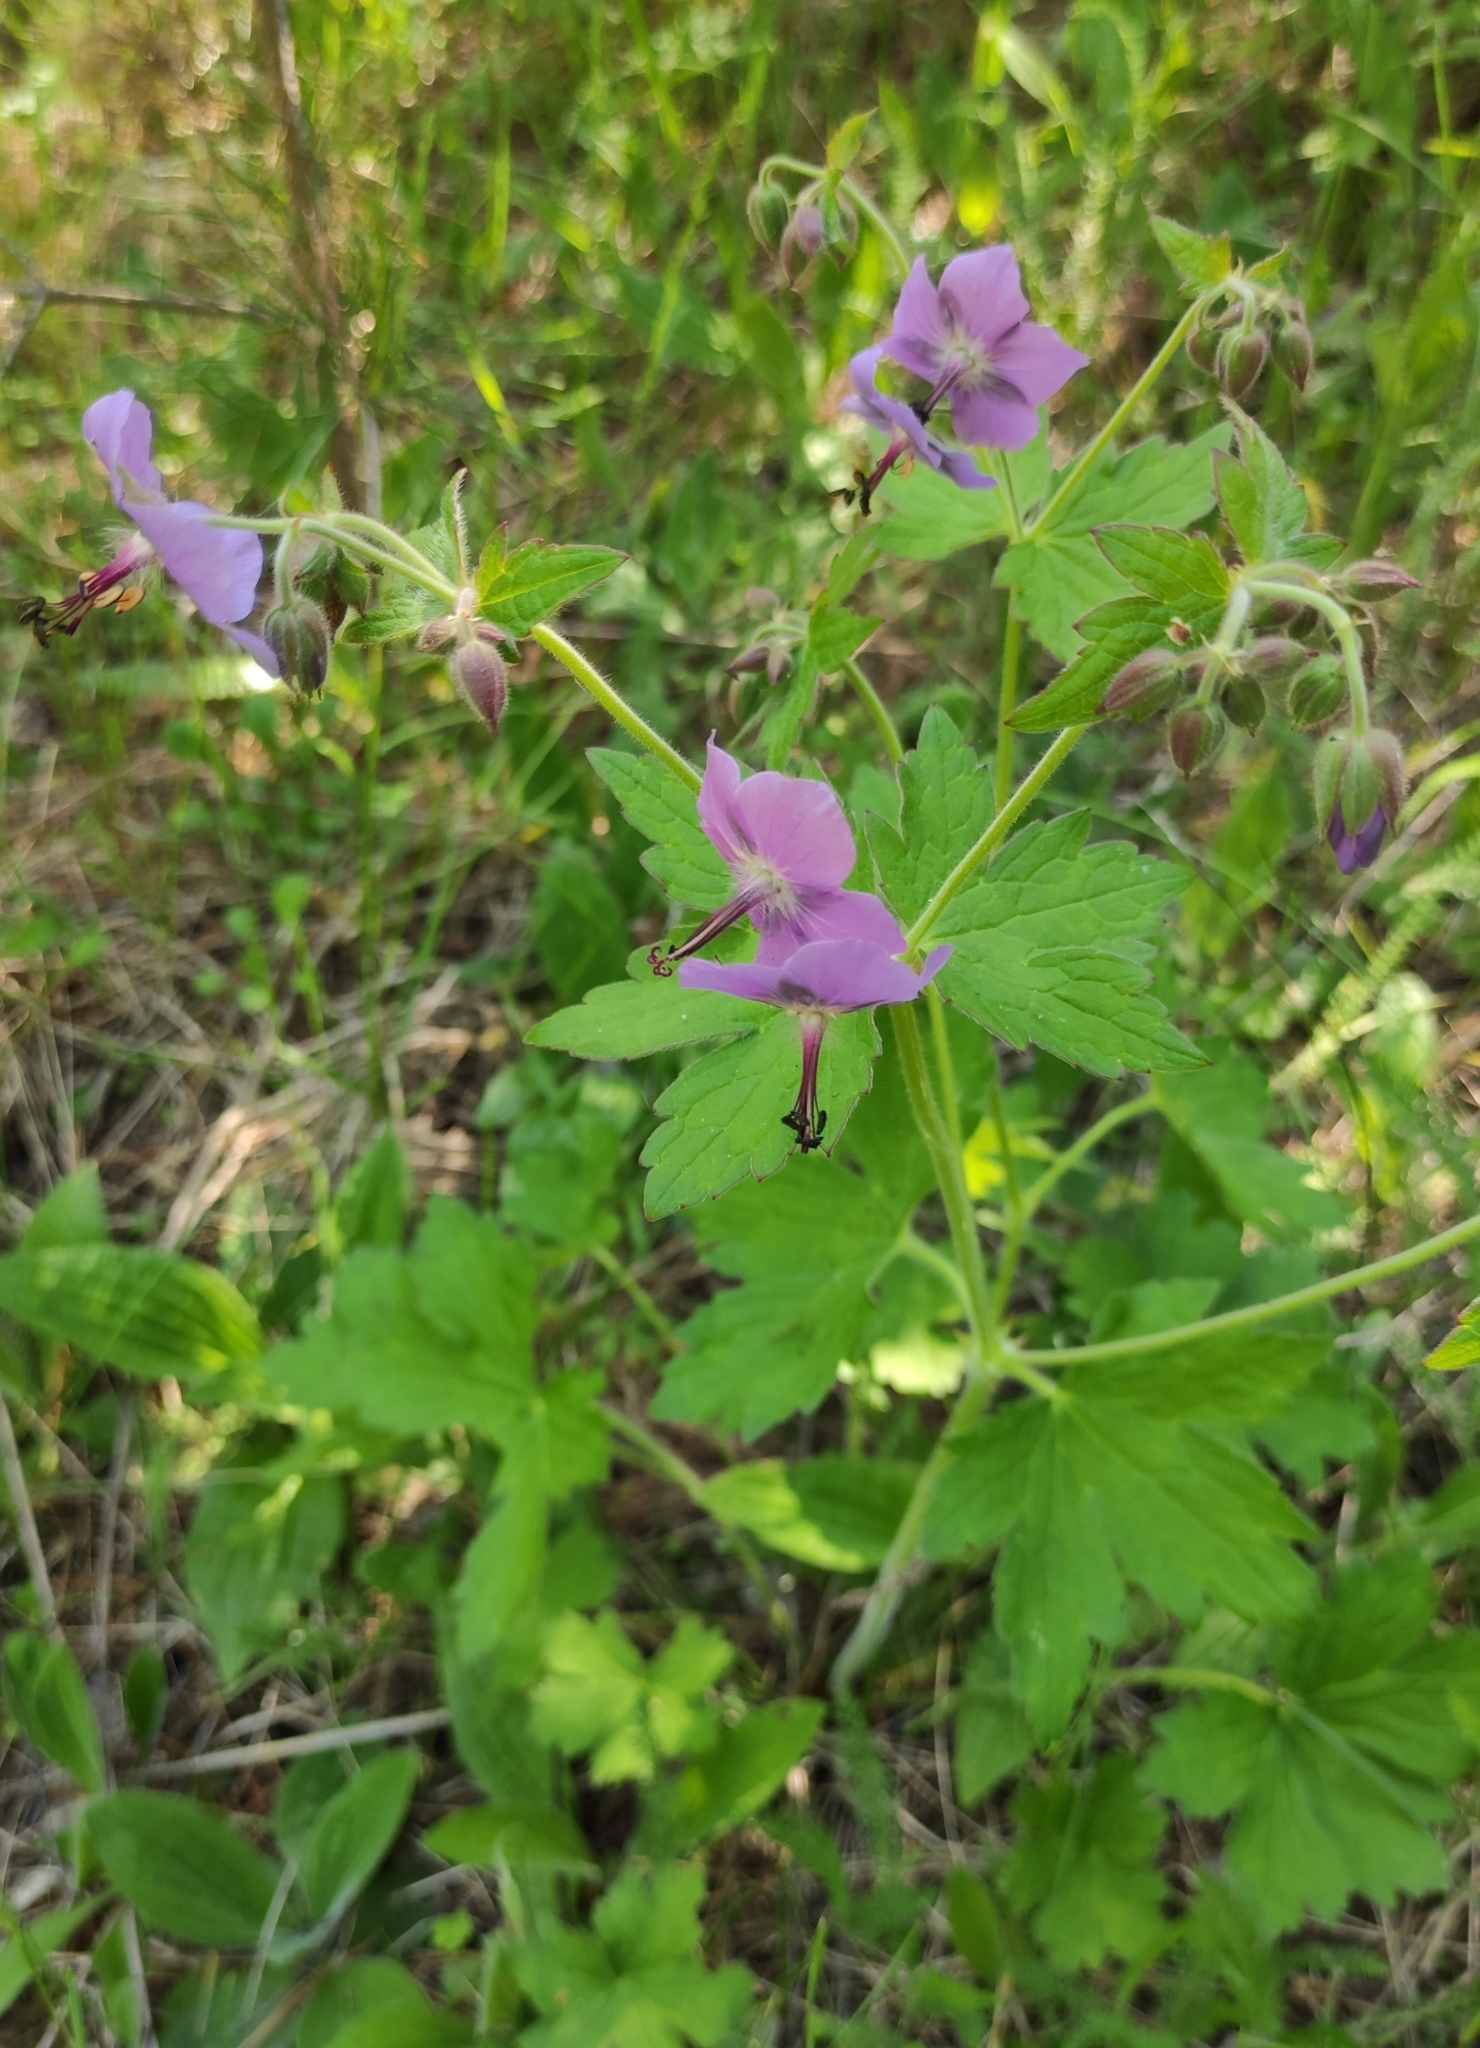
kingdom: Plantae
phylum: Tracheophyta
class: Magnoliopsida
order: Geraniales
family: Geraniaceae
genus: Geranium
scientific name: Geranium platyanthum
